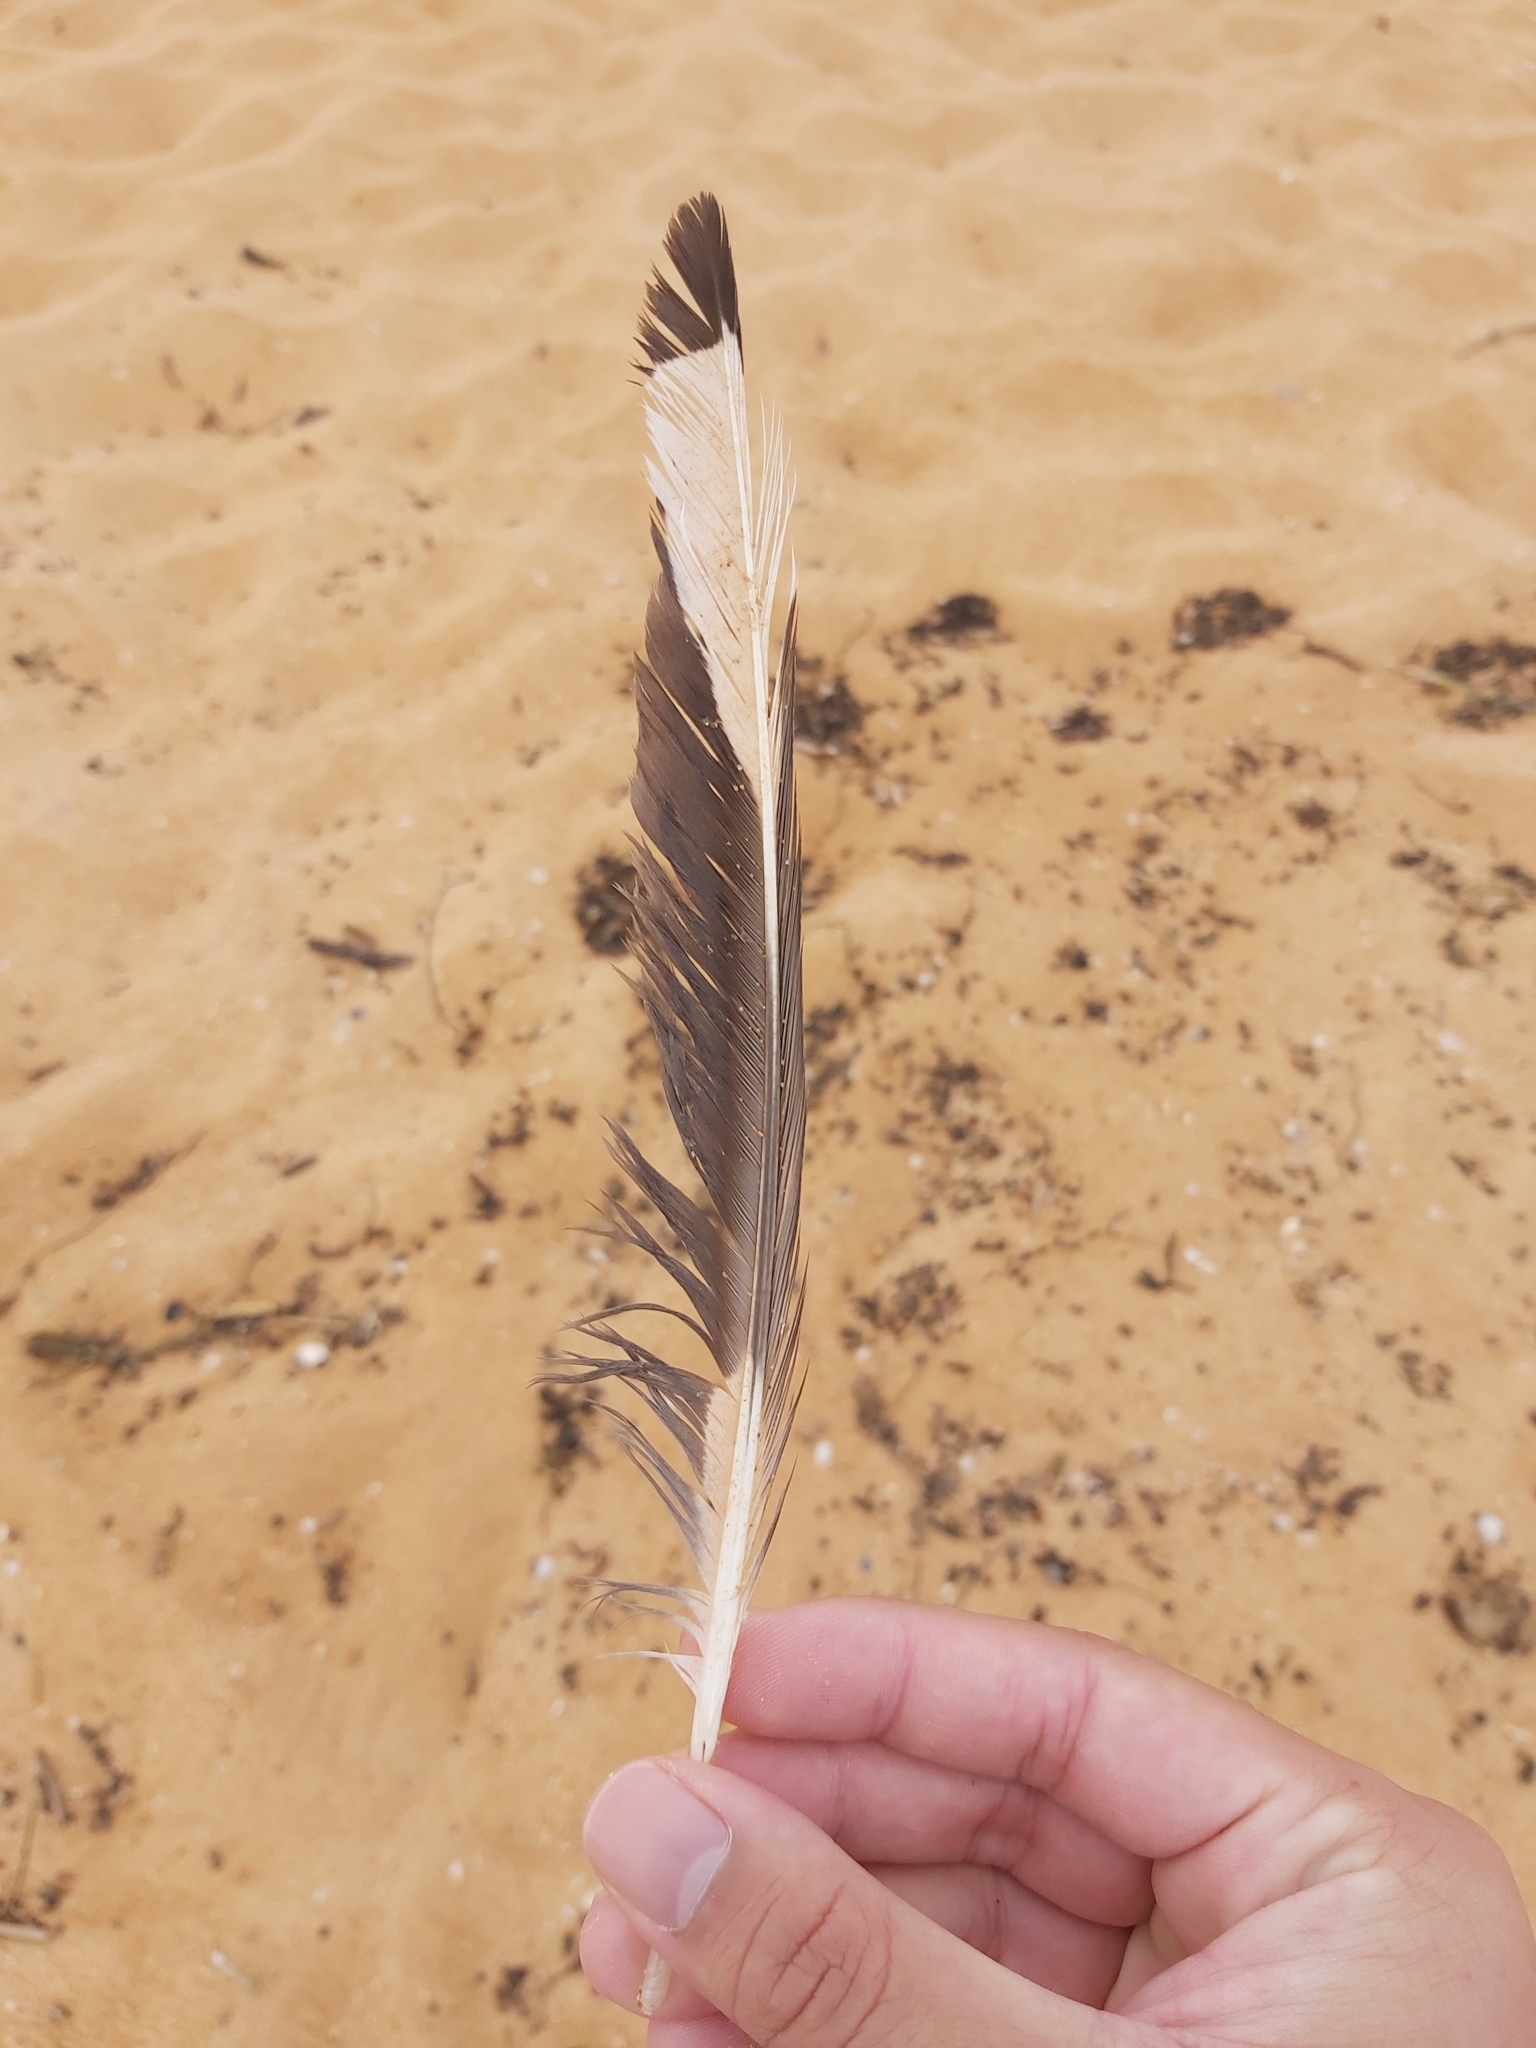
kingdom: Animalia
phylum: Chordata
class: Aves
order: Charadriiformes
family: Laridae
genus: Chroicocephalus
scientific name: Chroicocephalus novaehollandiae
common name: Silver gull
